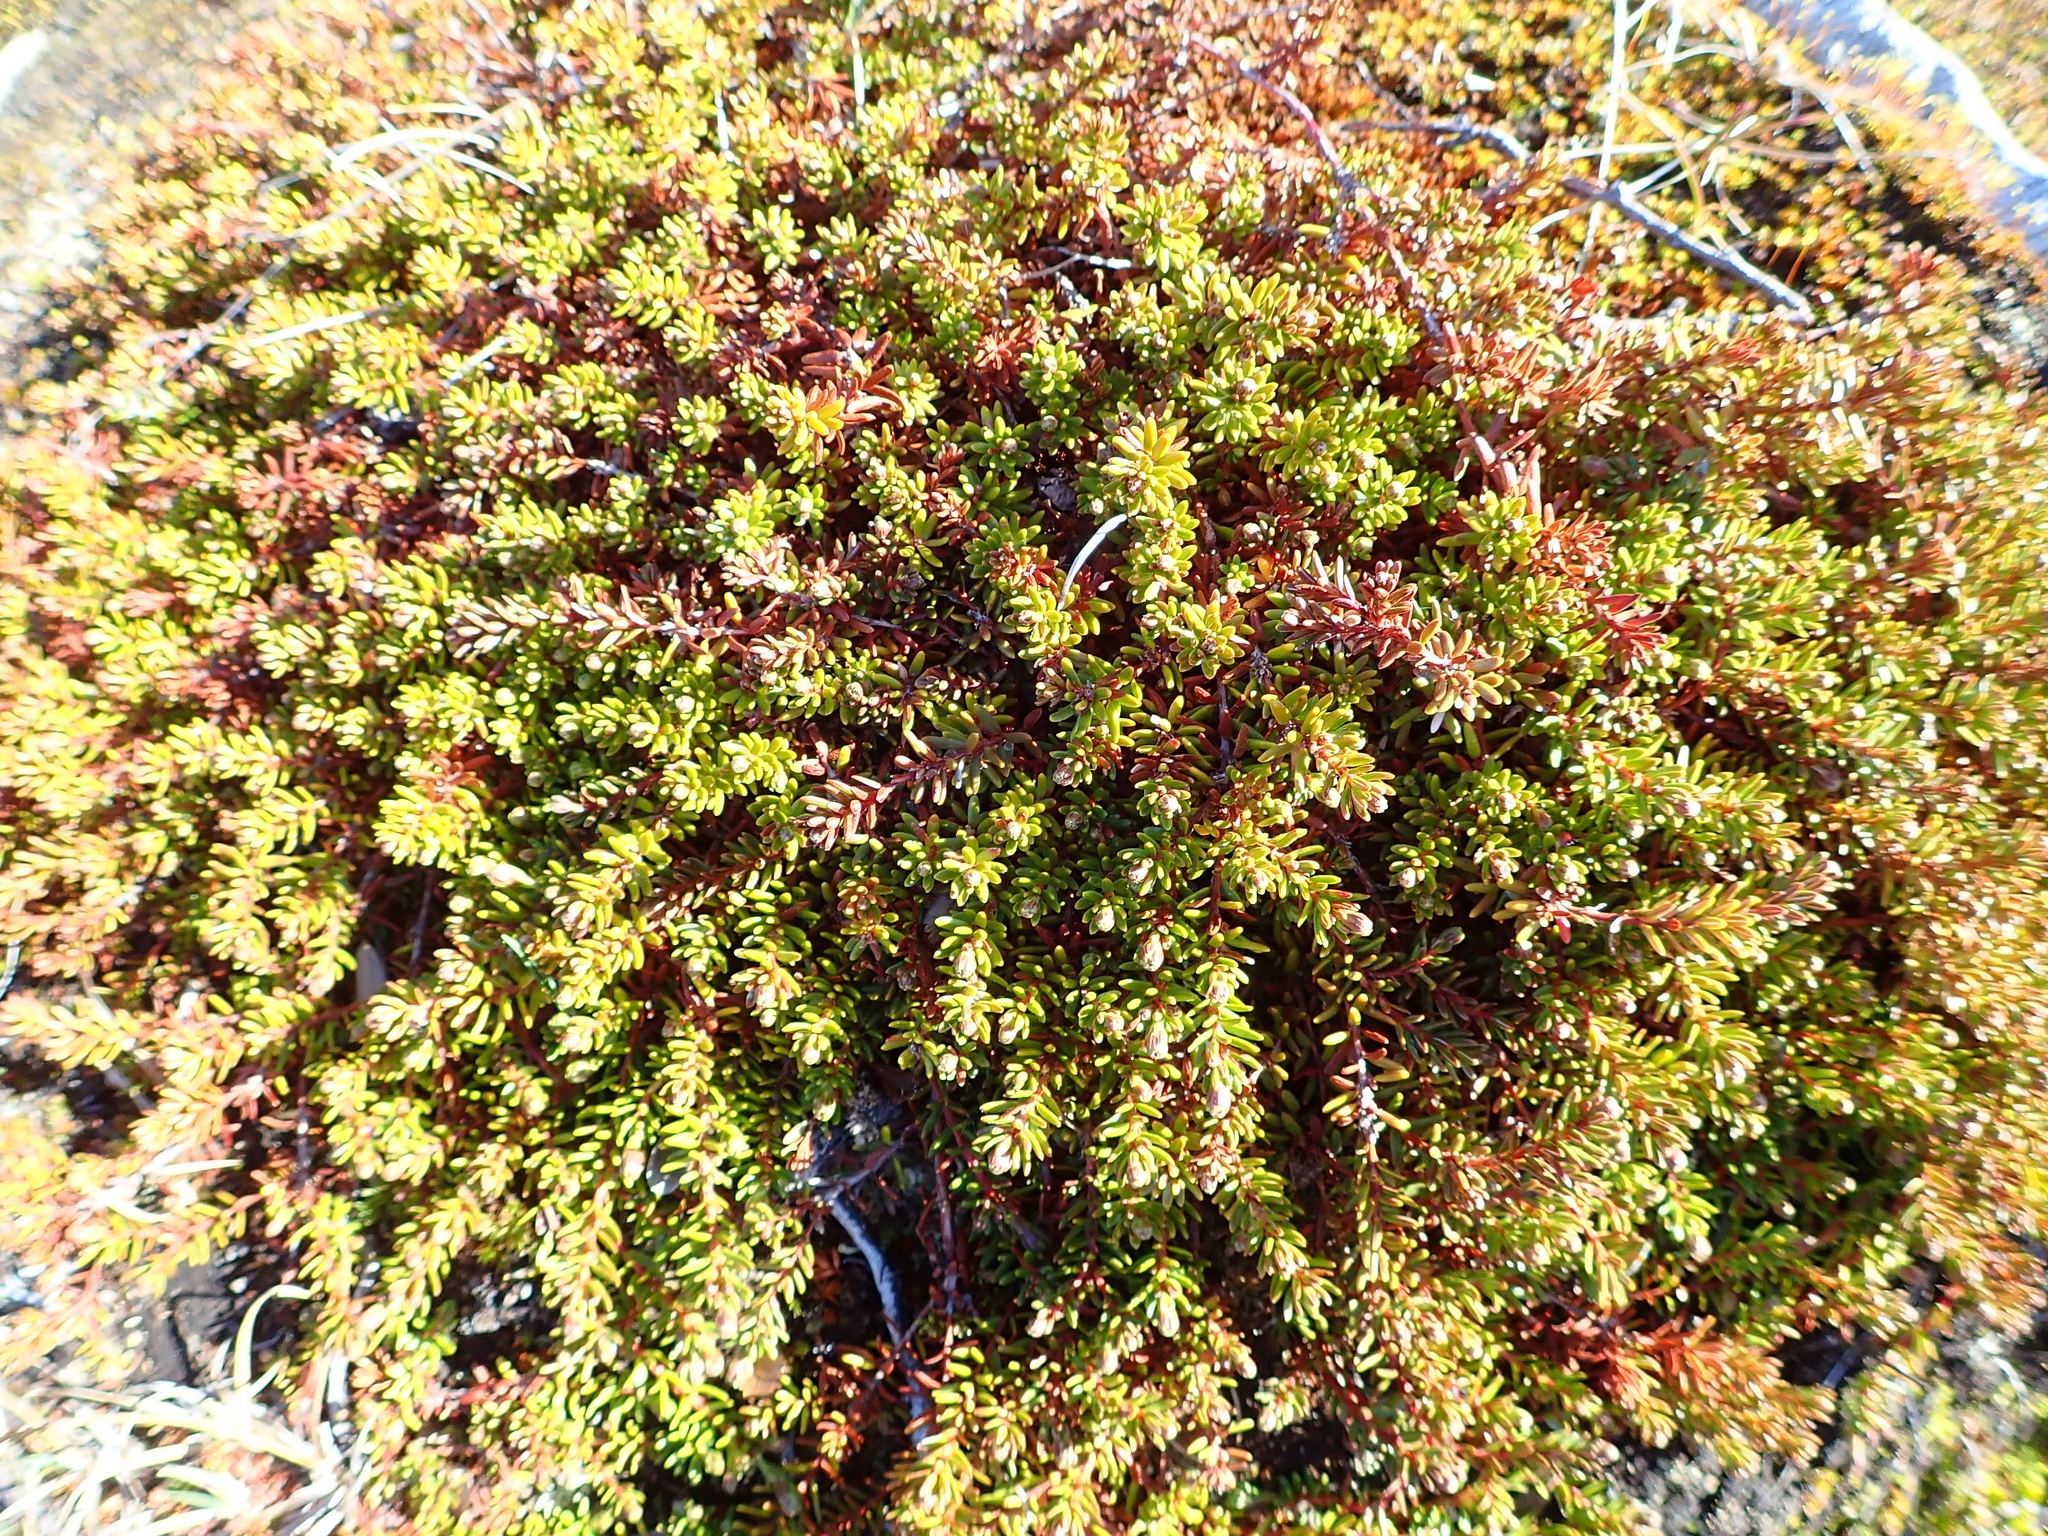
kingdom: Plantae
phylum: Tracheophyta
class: Magnoliopsida
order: Ericales
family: Ericaceae
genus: Empetrum
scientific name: Empetrum hermaphroditum
